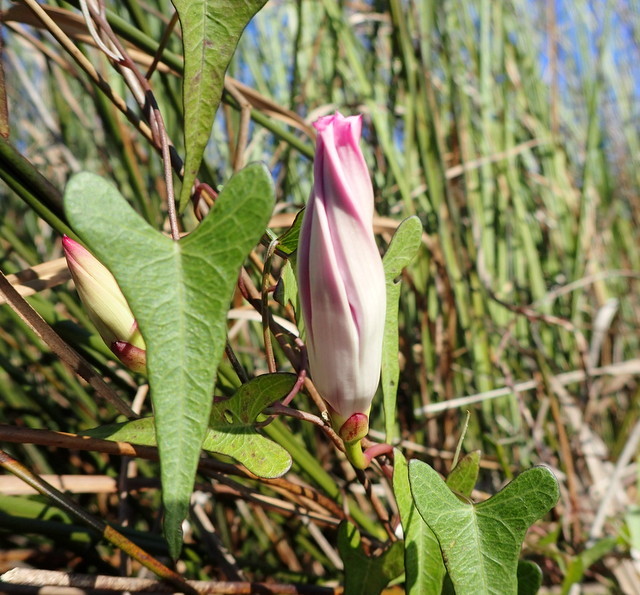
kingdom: Plantae
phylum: Tracheophyta
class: Magnoliopsida
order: Solanales
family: Convolvulaceae
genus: Ipomoea
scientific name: Ipomoea sagittata
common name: Saltmarsh morning glory
